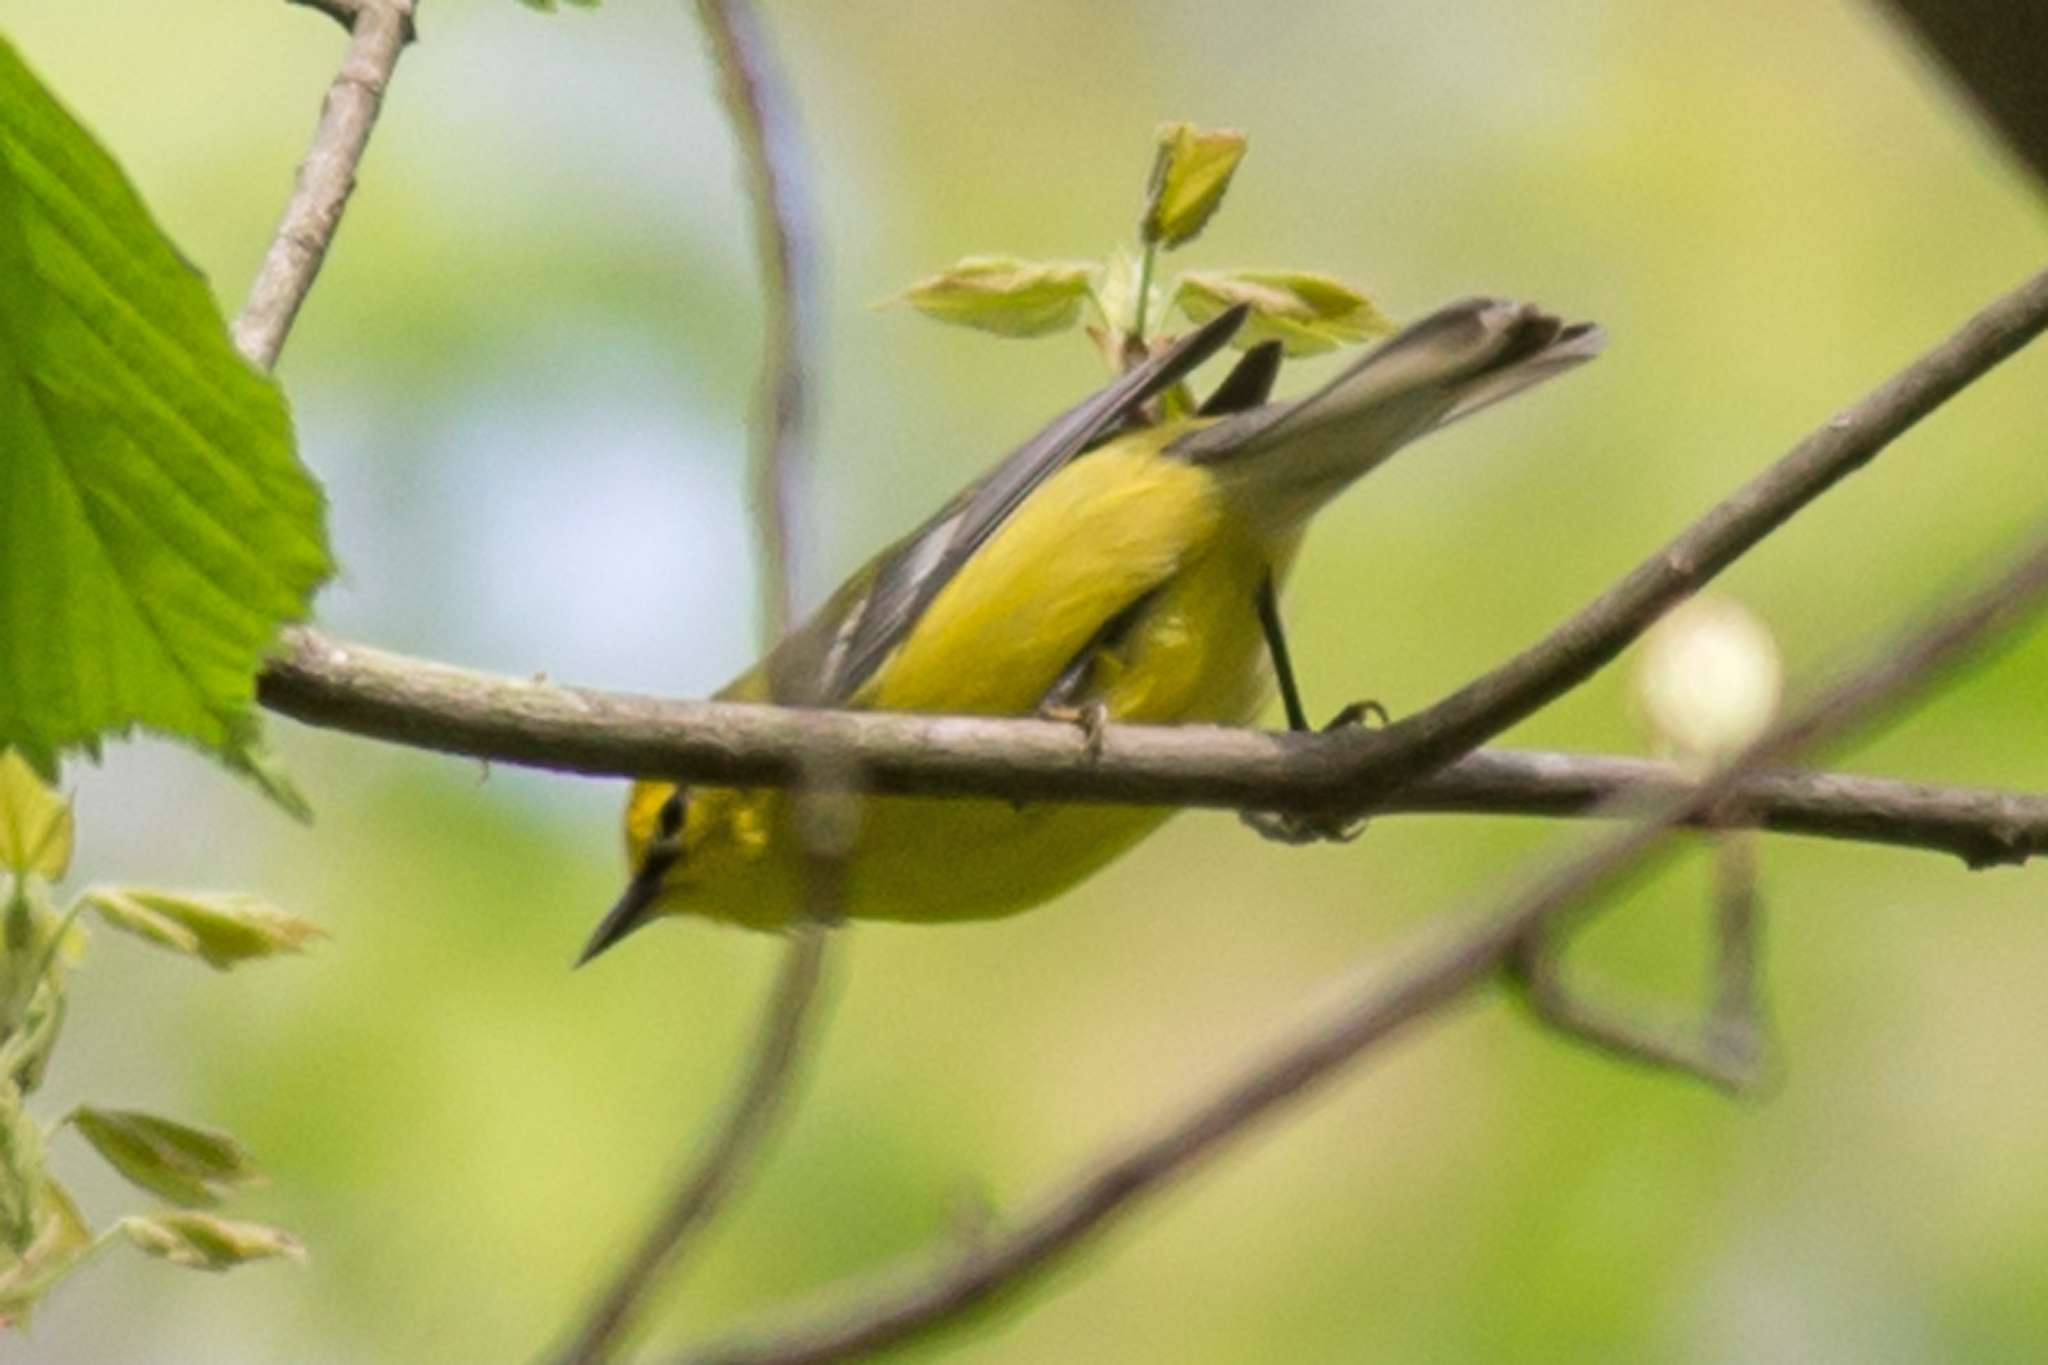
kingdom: Animalia
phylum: Chordata
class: Aves
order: Passeriformes
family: Parulidae
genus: Vermivora
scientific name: Vermivora cyanoptera
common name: Blue-winged warbler
